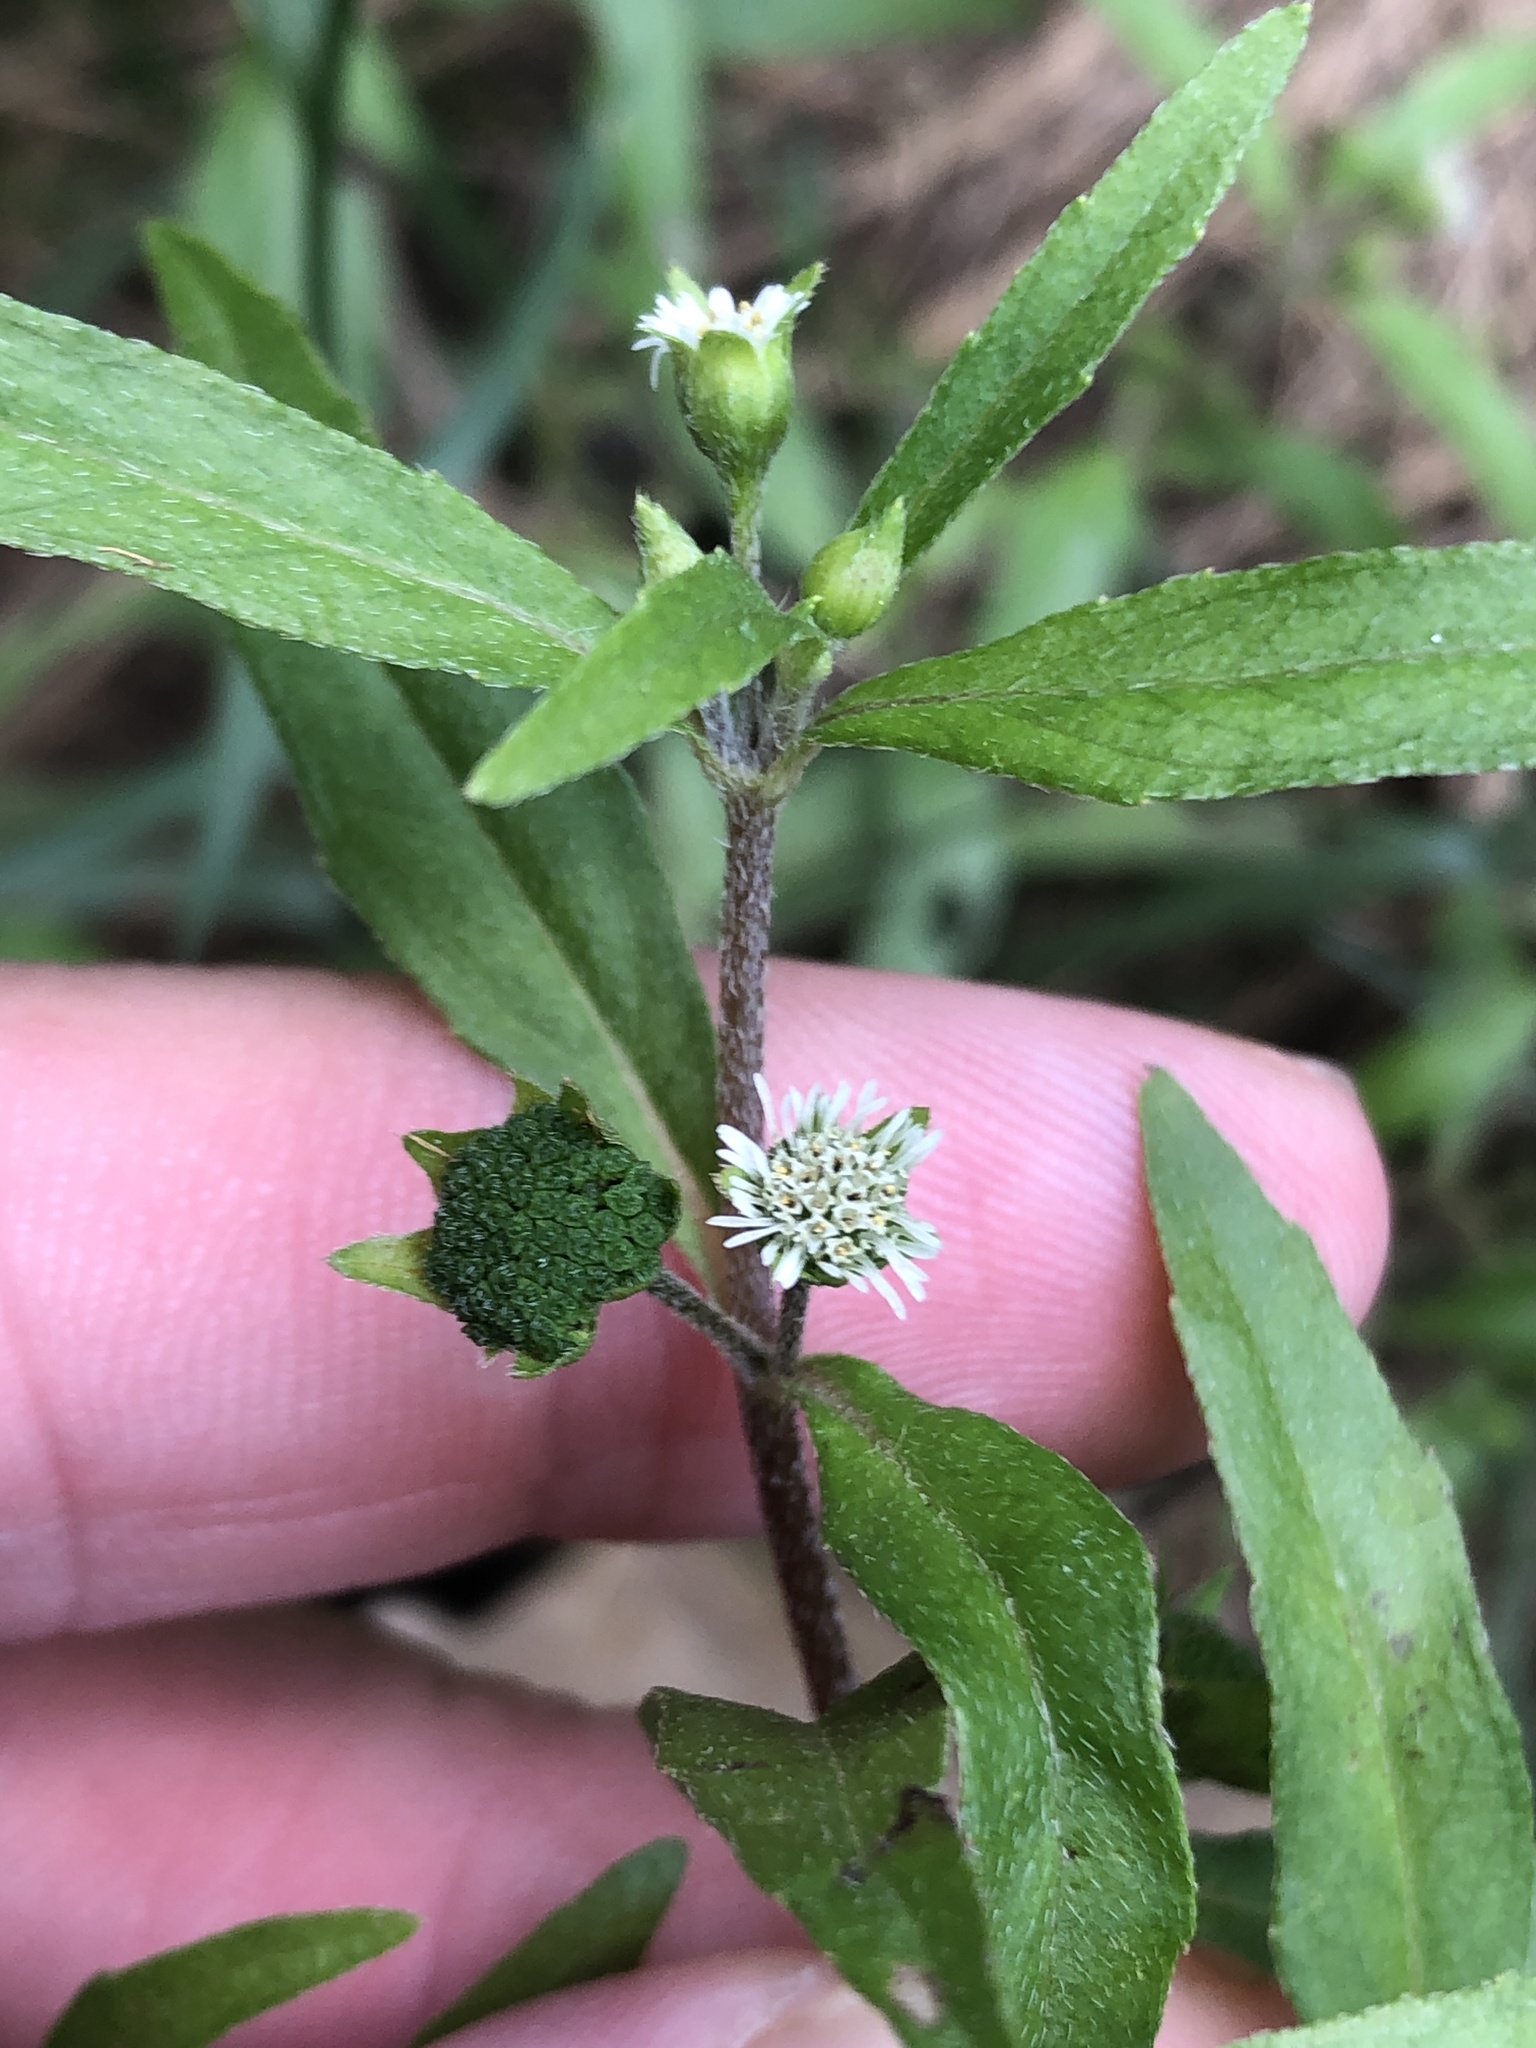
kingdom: Plantae
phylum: Tracheophyta
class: Magnoliopsida
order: Asterales
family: Asteraceae
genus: Eclipta
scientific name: Eclipta prostrata
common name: False daisy
